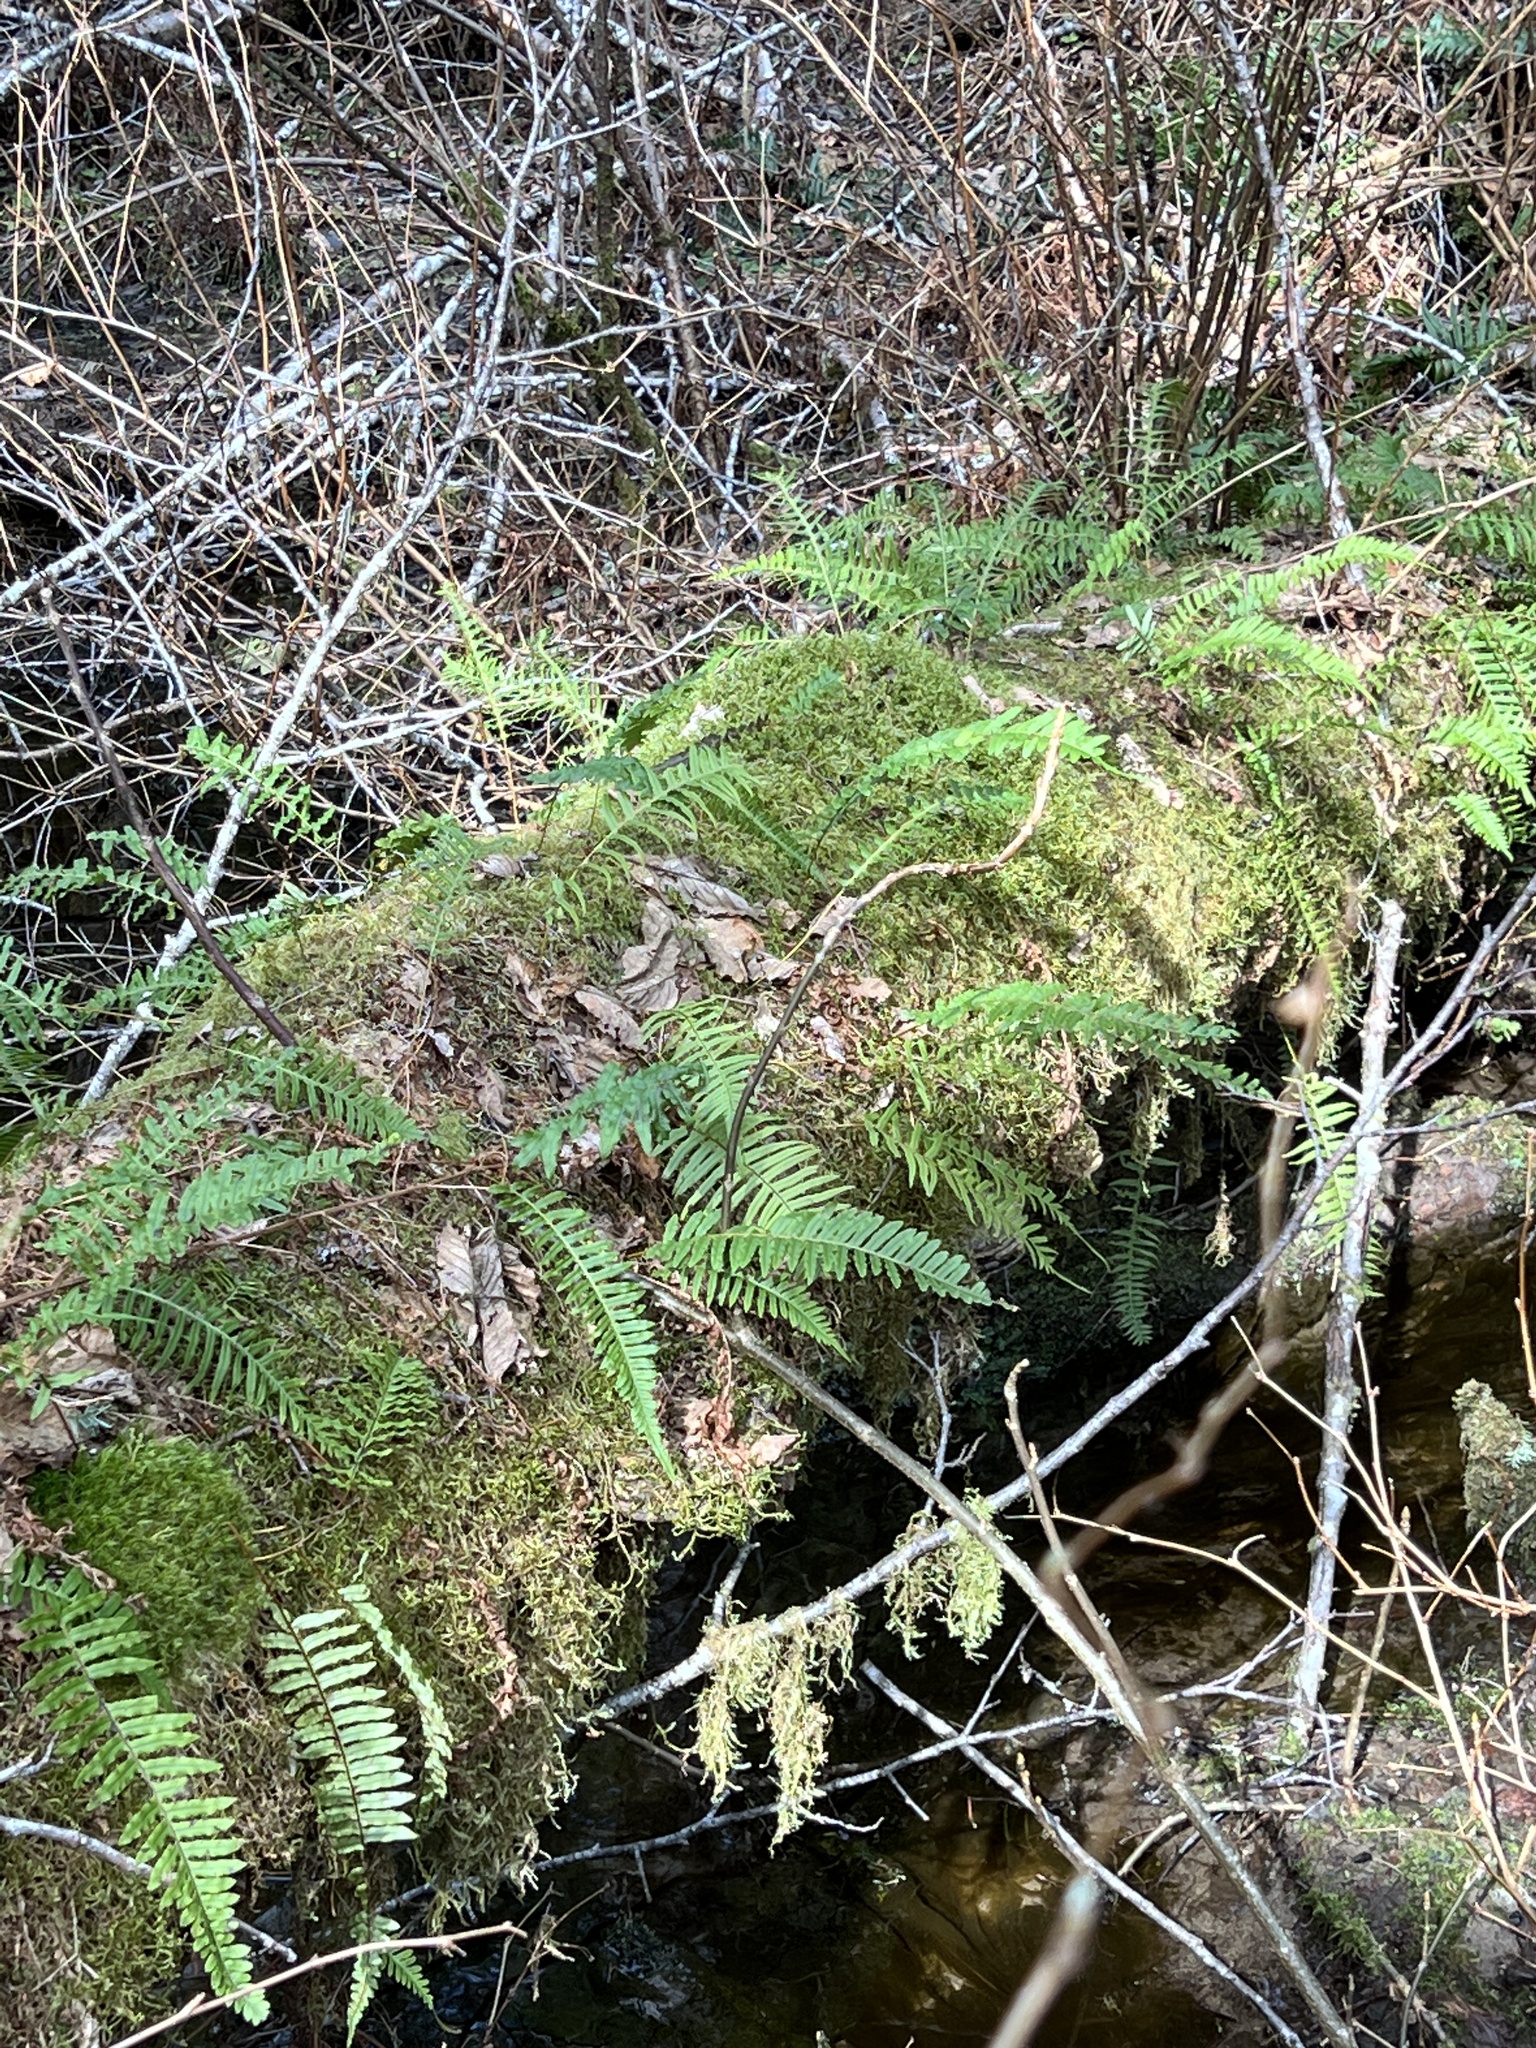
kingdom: Plantae
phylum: Tracheophyta
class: Polypodiopsida
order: Polypodiales
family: Polypodiaceae
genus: Polypodium
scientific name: Polypodium glycyrrhiza
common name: Licorice fern
